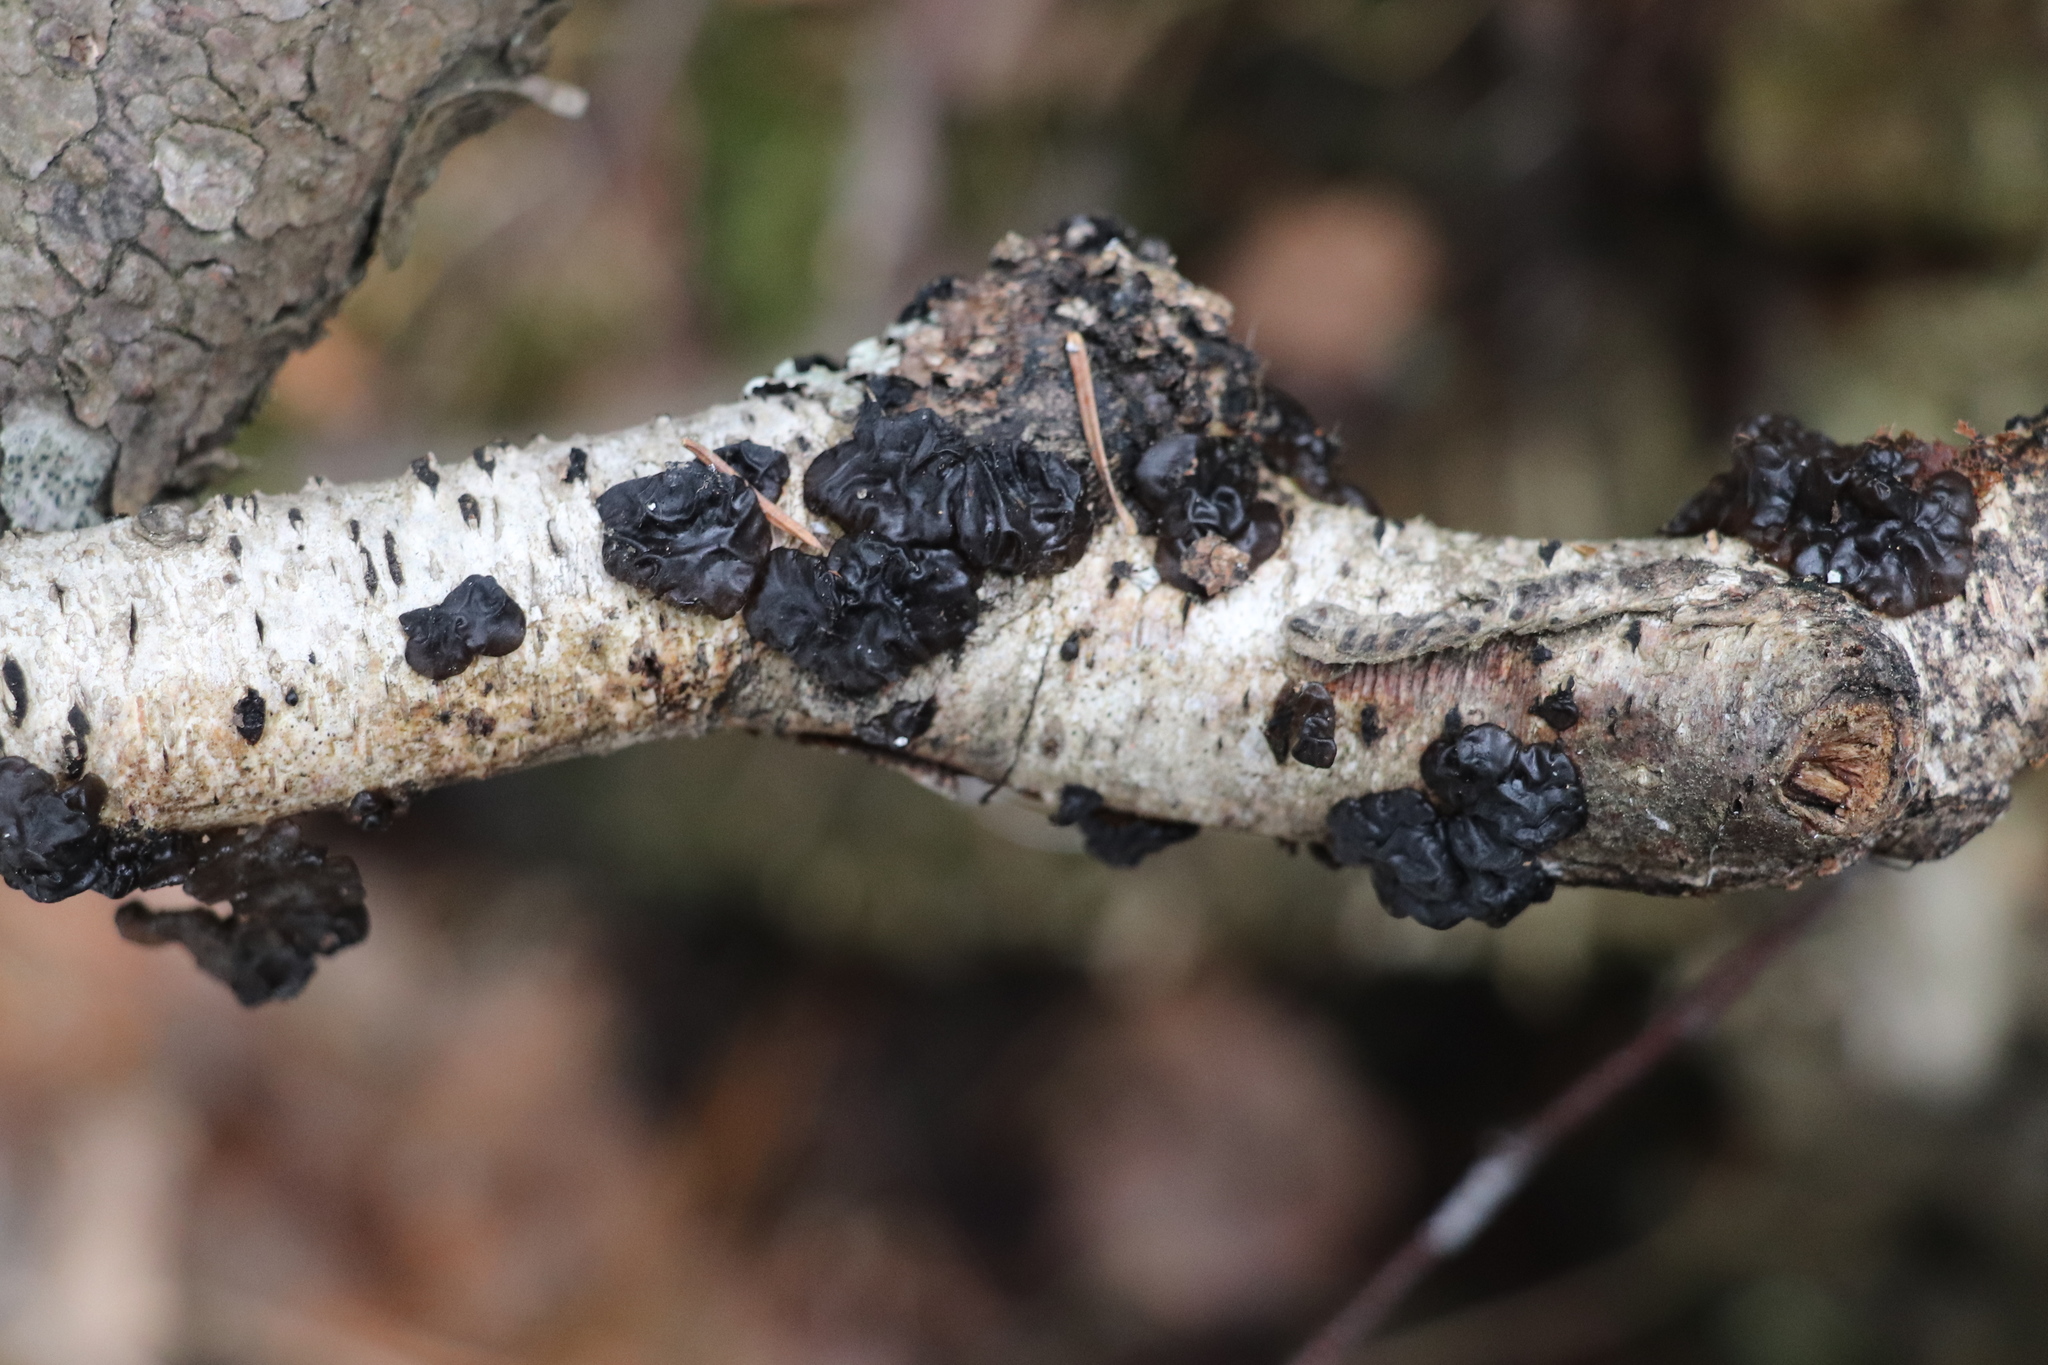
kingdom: Fungi
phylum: Basidiomycota
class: Agaricomycetes
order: Auriculariales
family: Auriculariaceae
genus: Exidia
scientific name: Exidia nigricans
